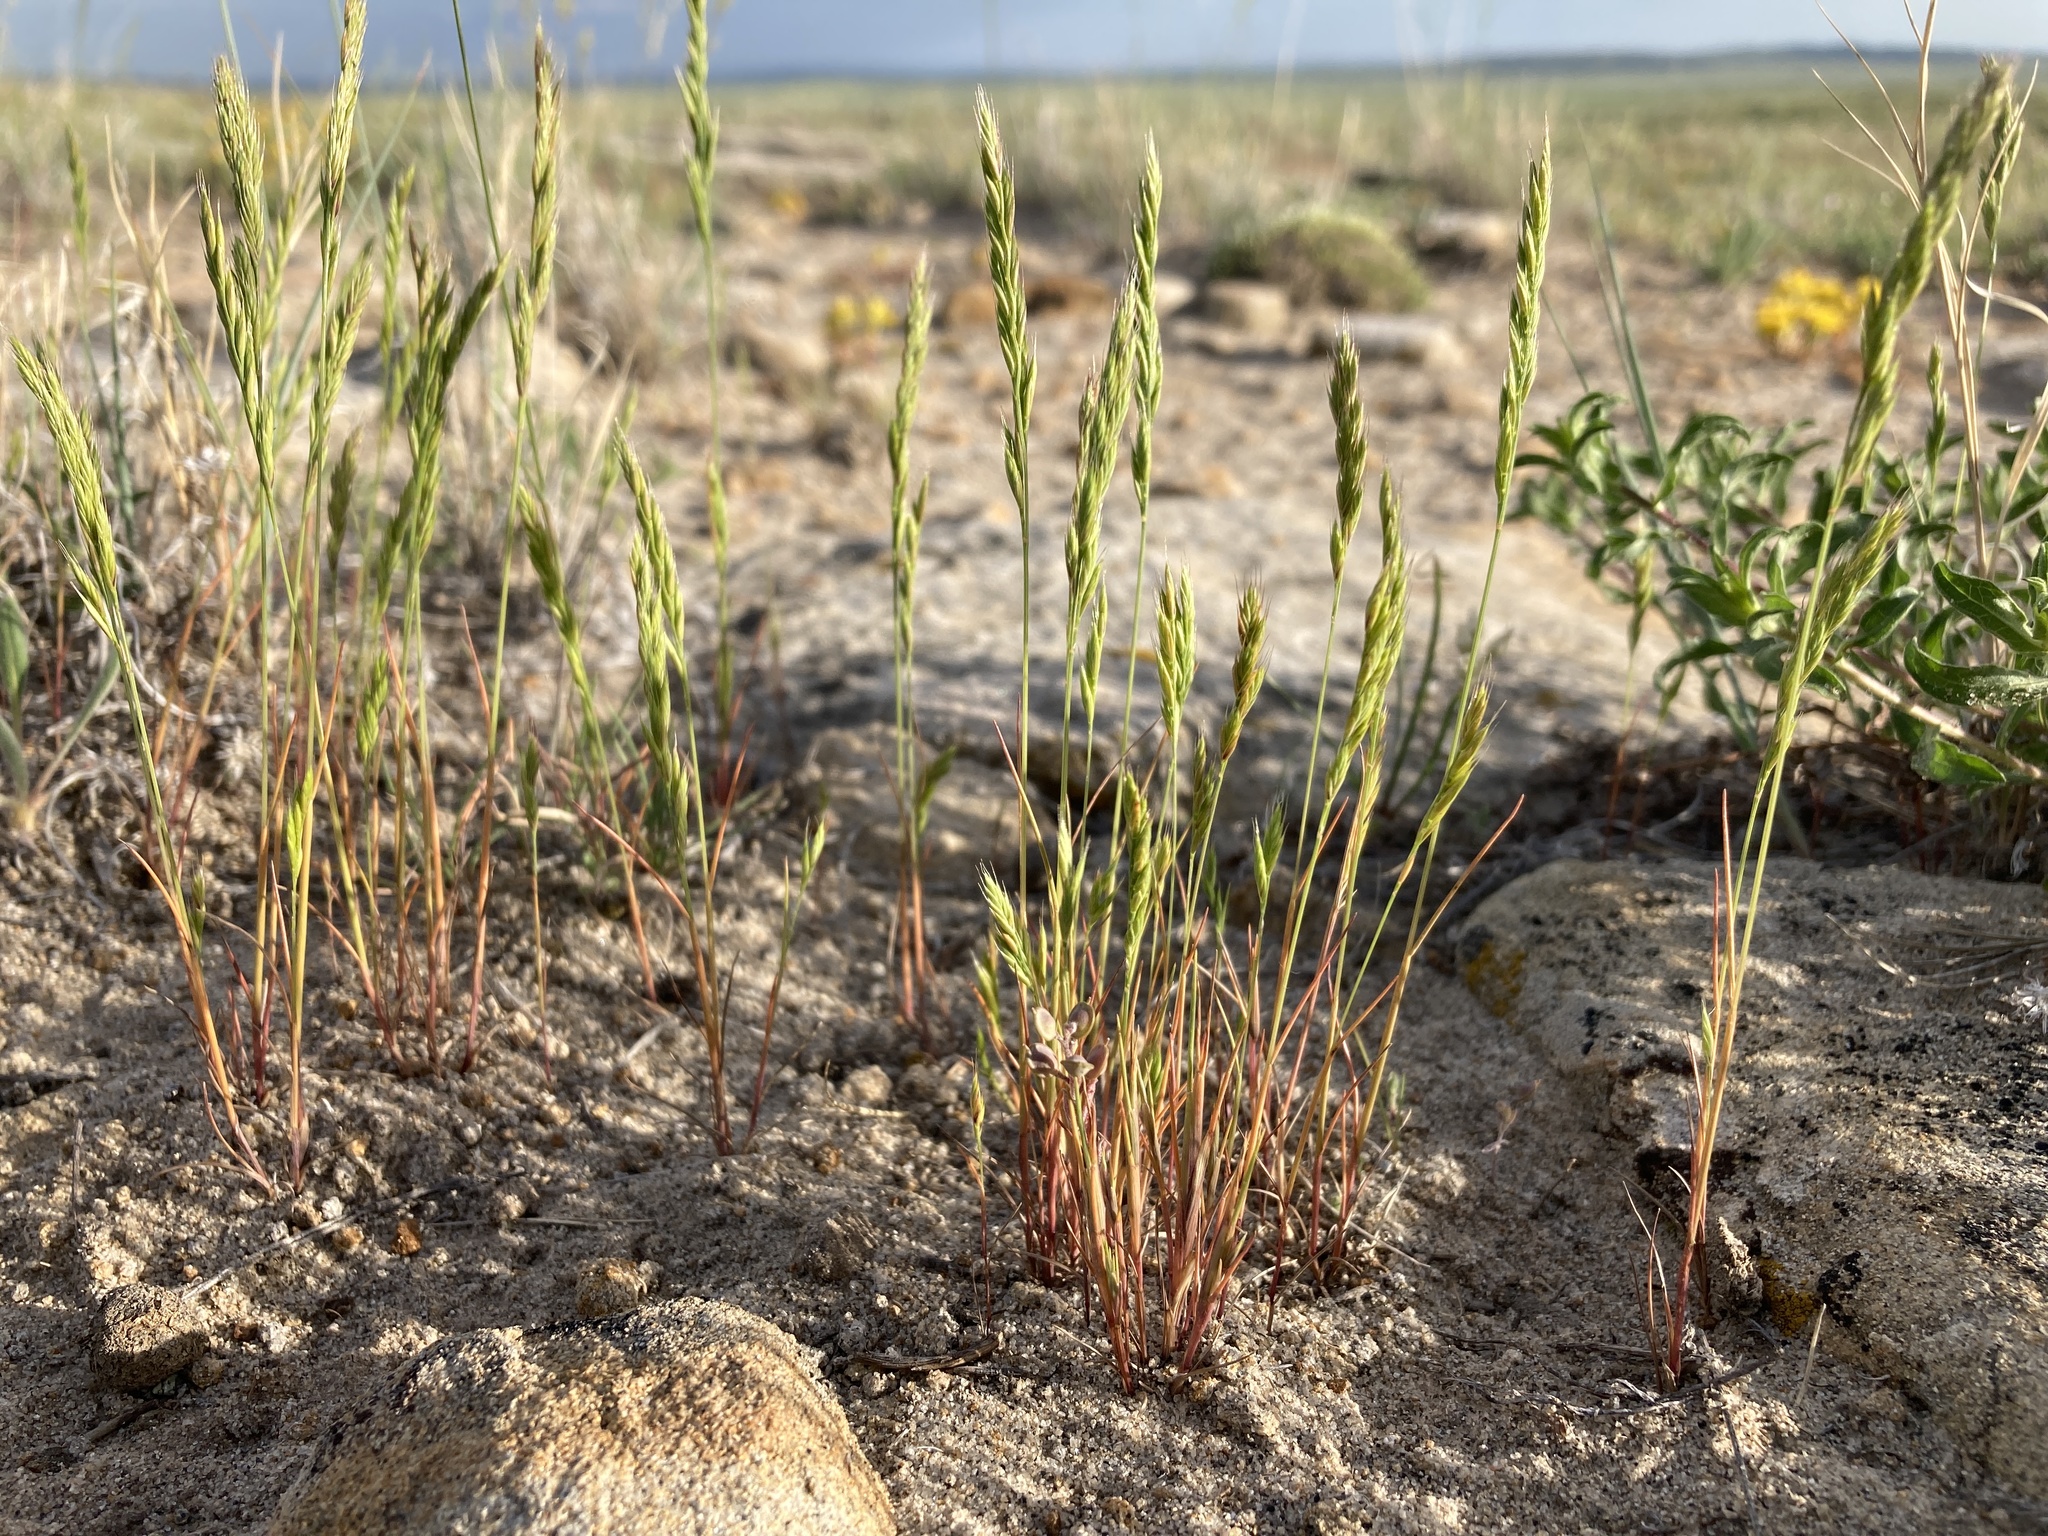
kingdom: Plantae
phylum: Tracheophyta
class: Liliopsida
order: Poales
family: Poaceae
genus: Festuca
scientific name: Festuca octoflora
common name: Sixweeks grass
